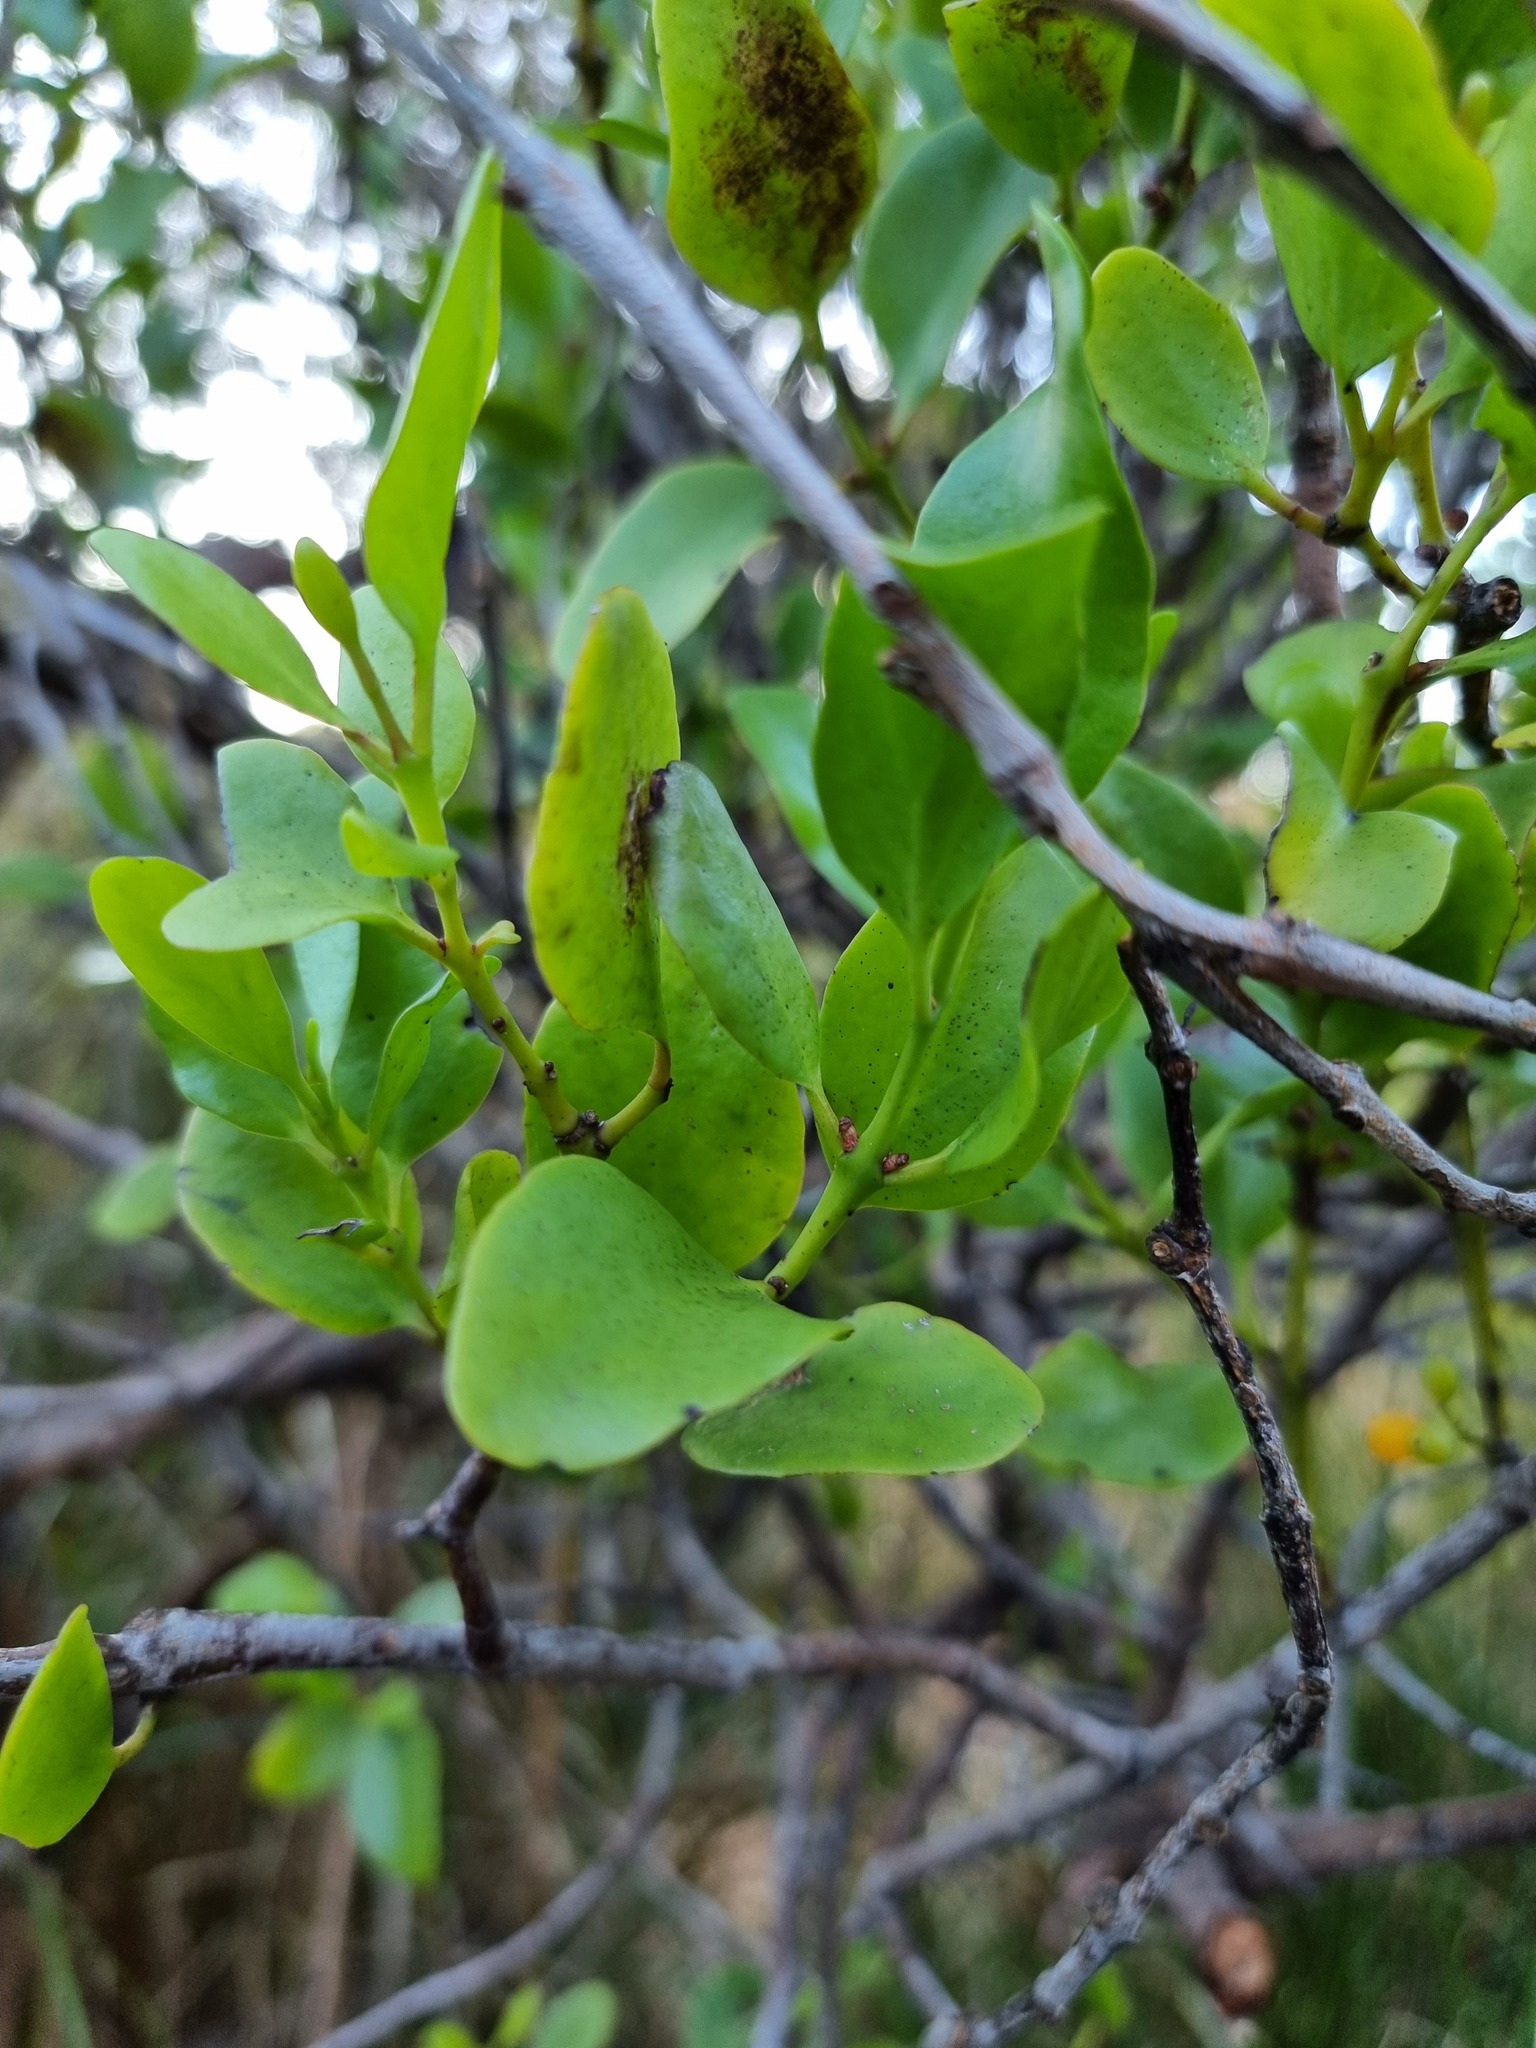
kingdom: Plantae
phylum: Tracheophyta
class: Magnoliopsida
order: Santalales
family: Loranthaceae
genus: Ileostylus
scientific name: Ileostylus micranthus
